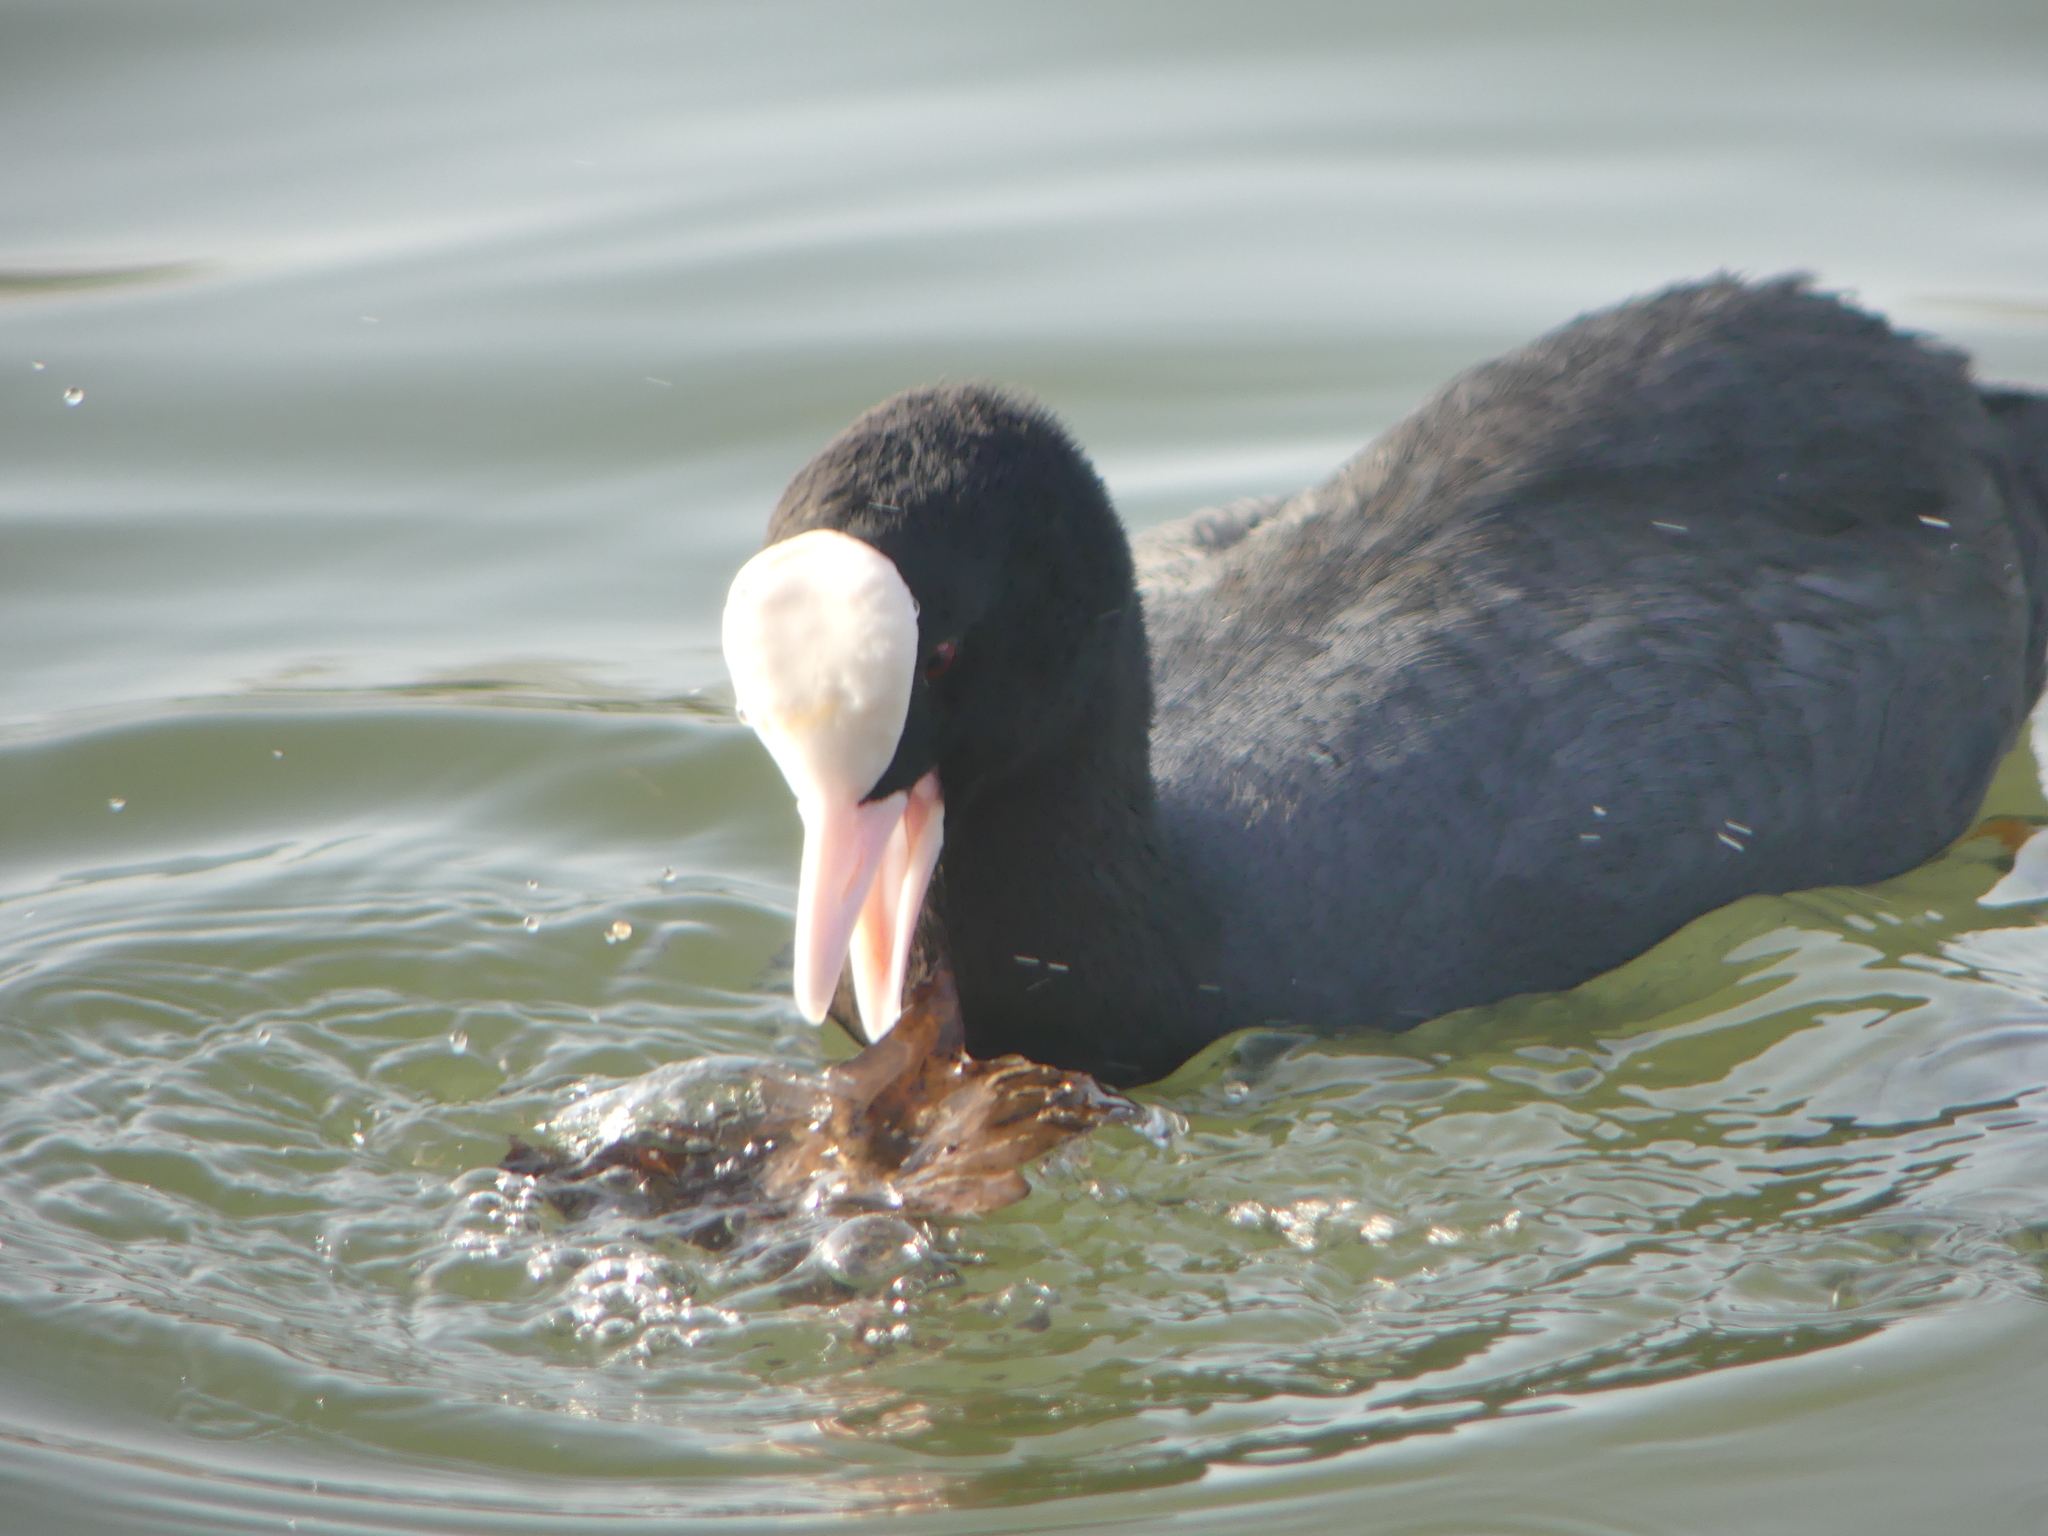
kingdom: Animalia
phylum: Chordata
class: Aves
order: Gruiformes
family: Rallidae
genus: Fulica
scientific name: Fulica atra
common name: Eurasian coot
